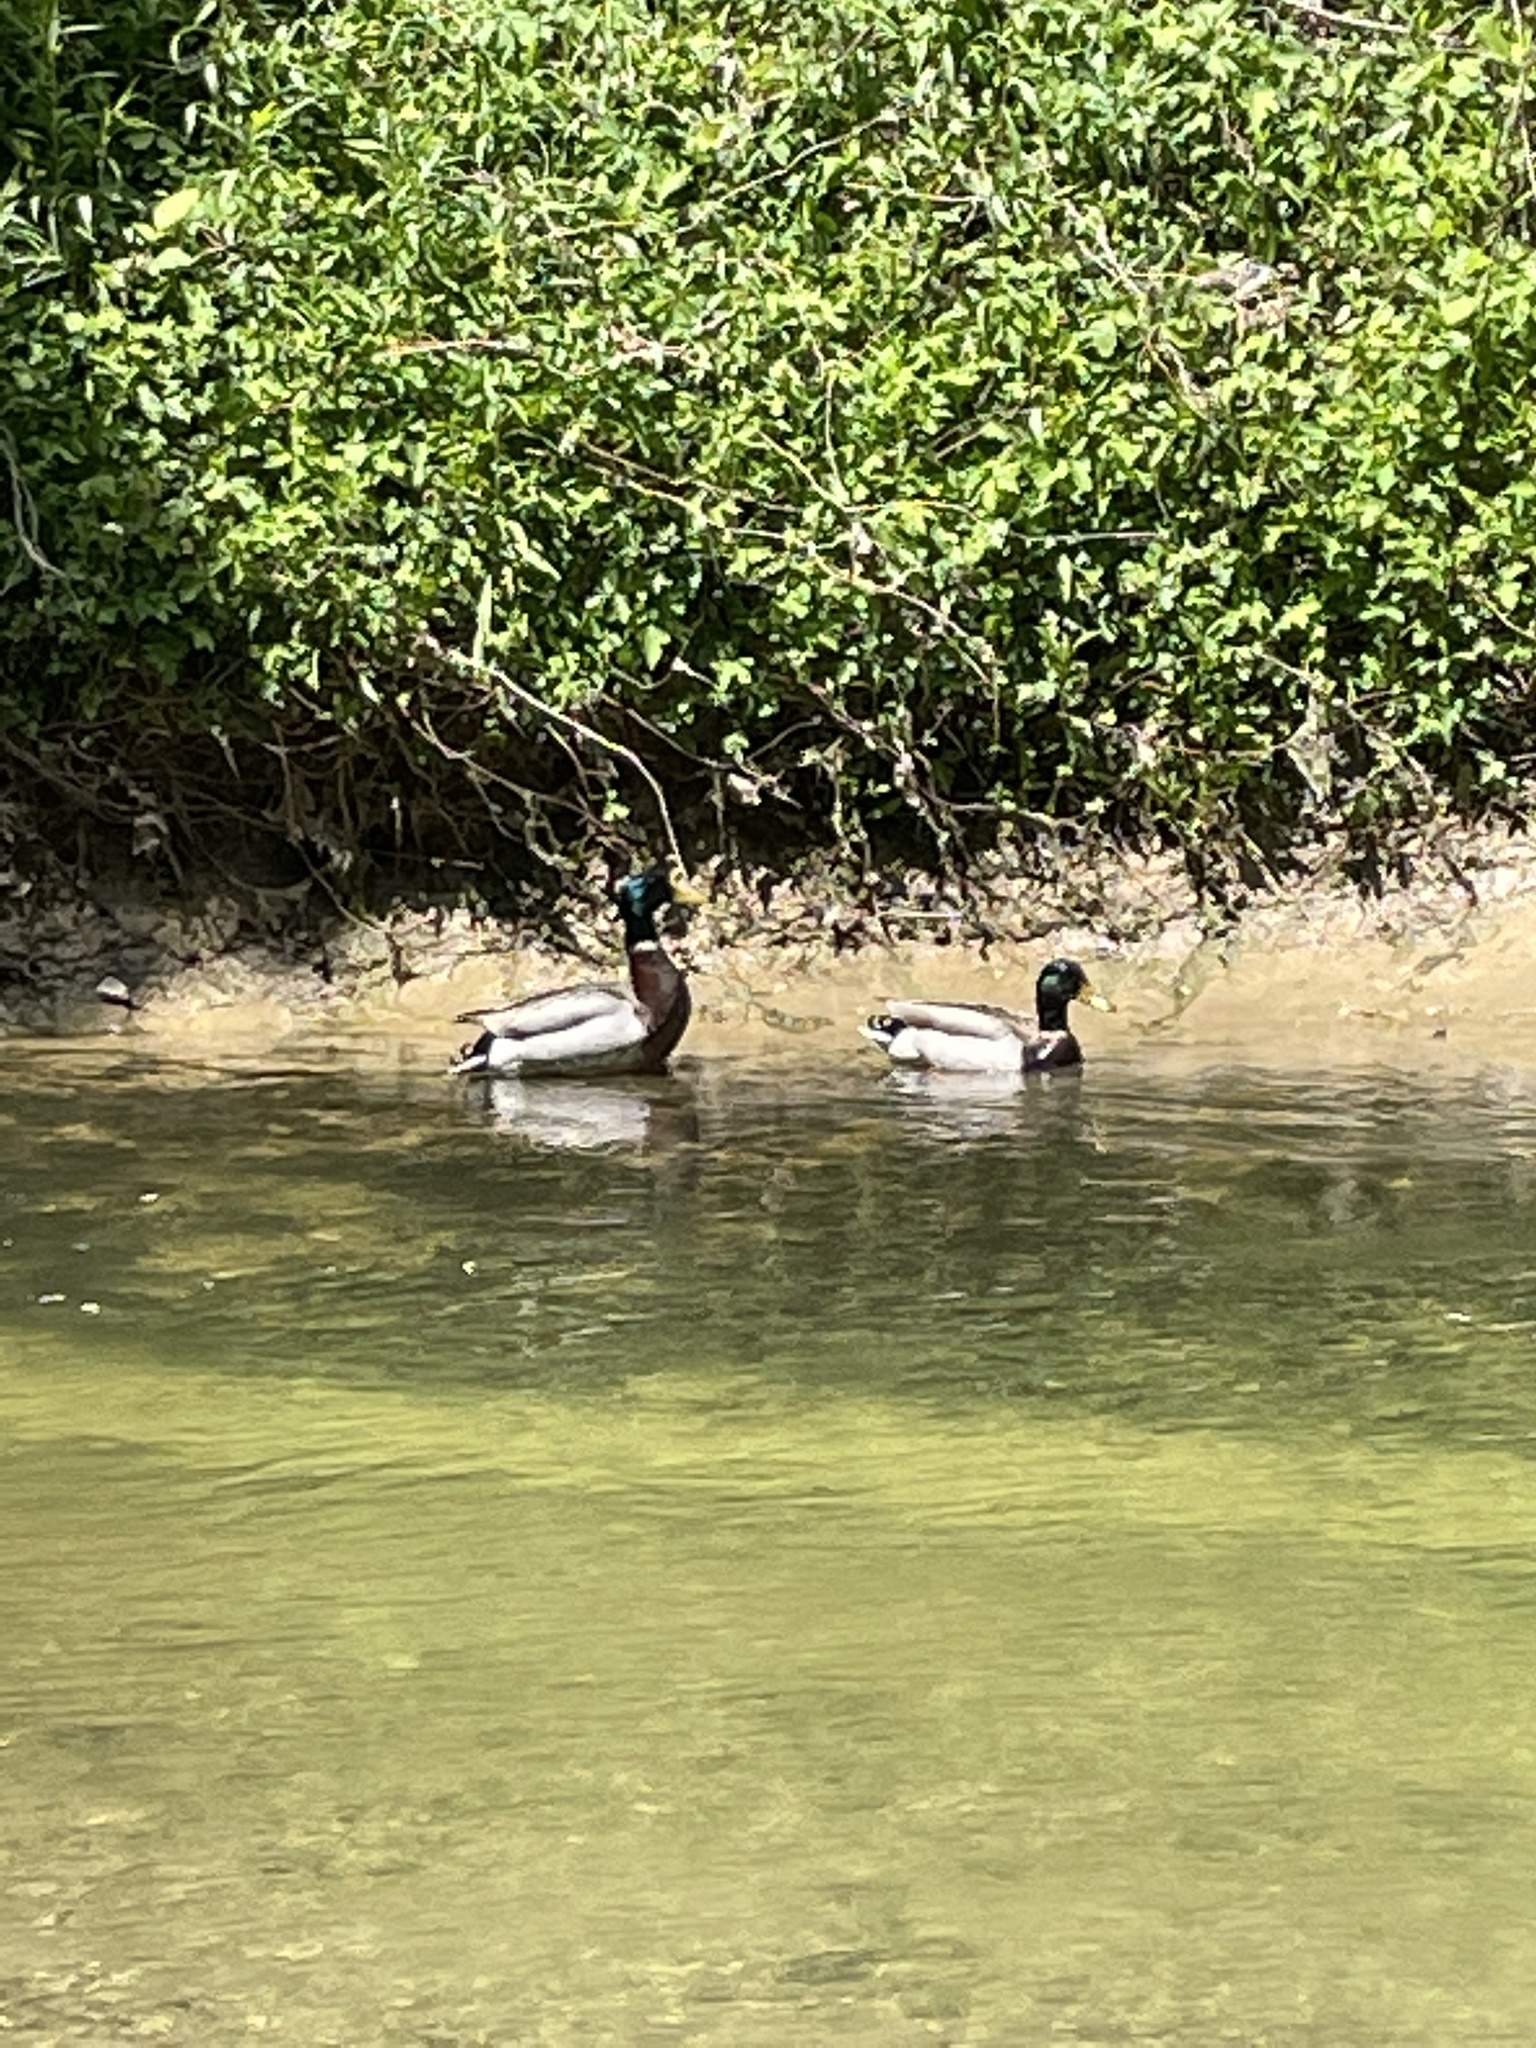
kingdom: Animalia
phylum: Chordata
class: Aves
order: Anseriformes
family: Anatidae
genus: Anas
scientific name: Anas platyrhynchos
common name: Mallard
